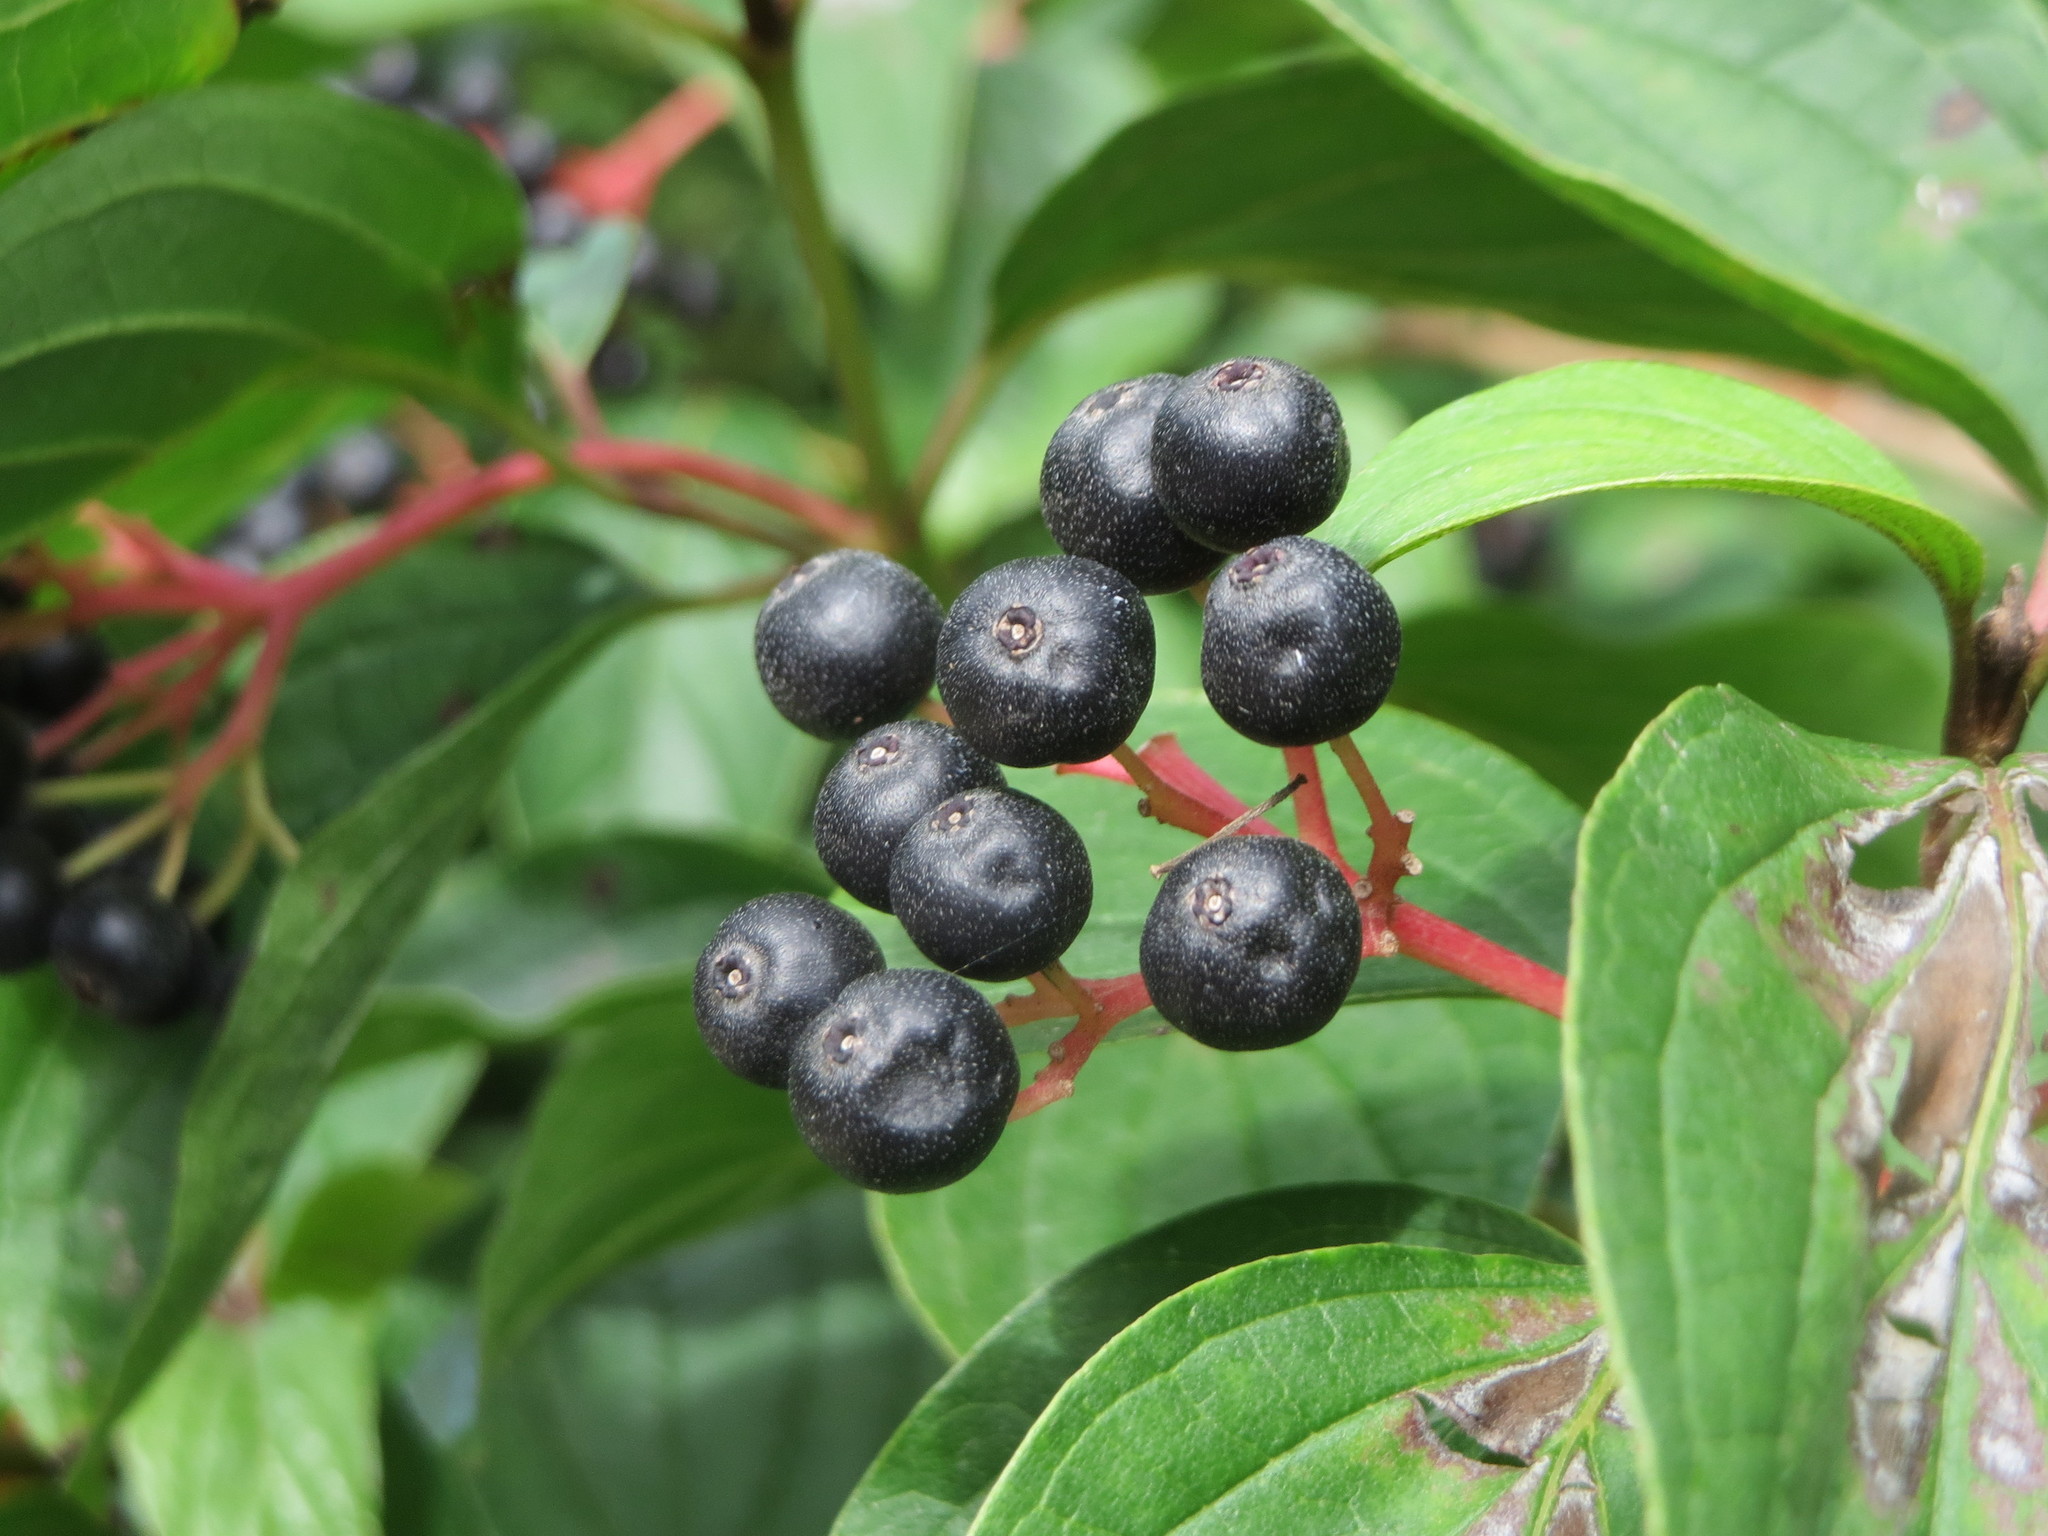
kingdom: Plantae
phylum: Tracheophyta
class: Magnoliopsida
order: Cornales
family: Cornaceae
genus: Cornus
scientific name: Cornus sanguinea
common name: Dogwood
